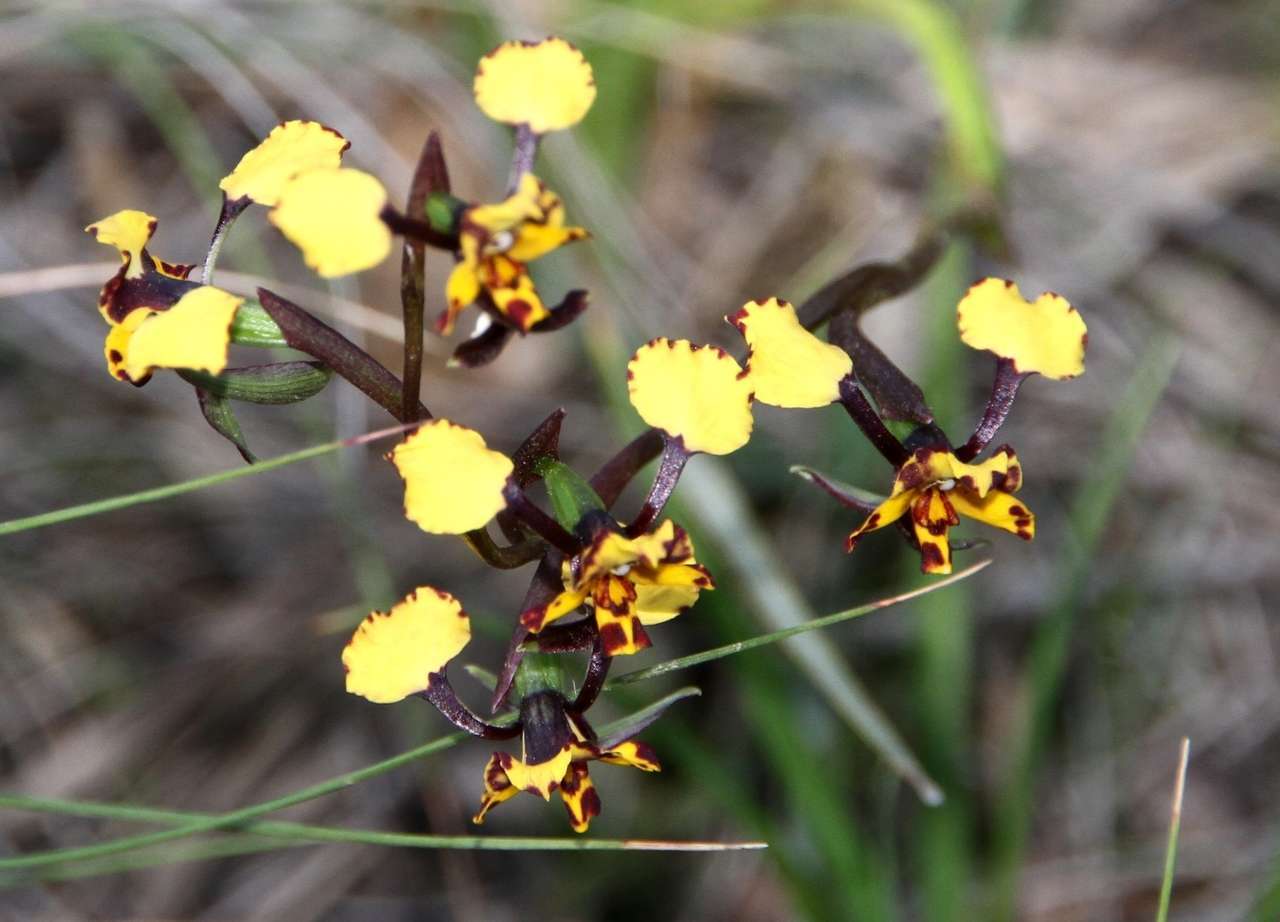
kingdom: Plantae
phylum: Tracheophyta
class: Liliopsida
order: Asparagales
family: Orchidaceae
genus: Diuris
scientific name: Diuris pardina
